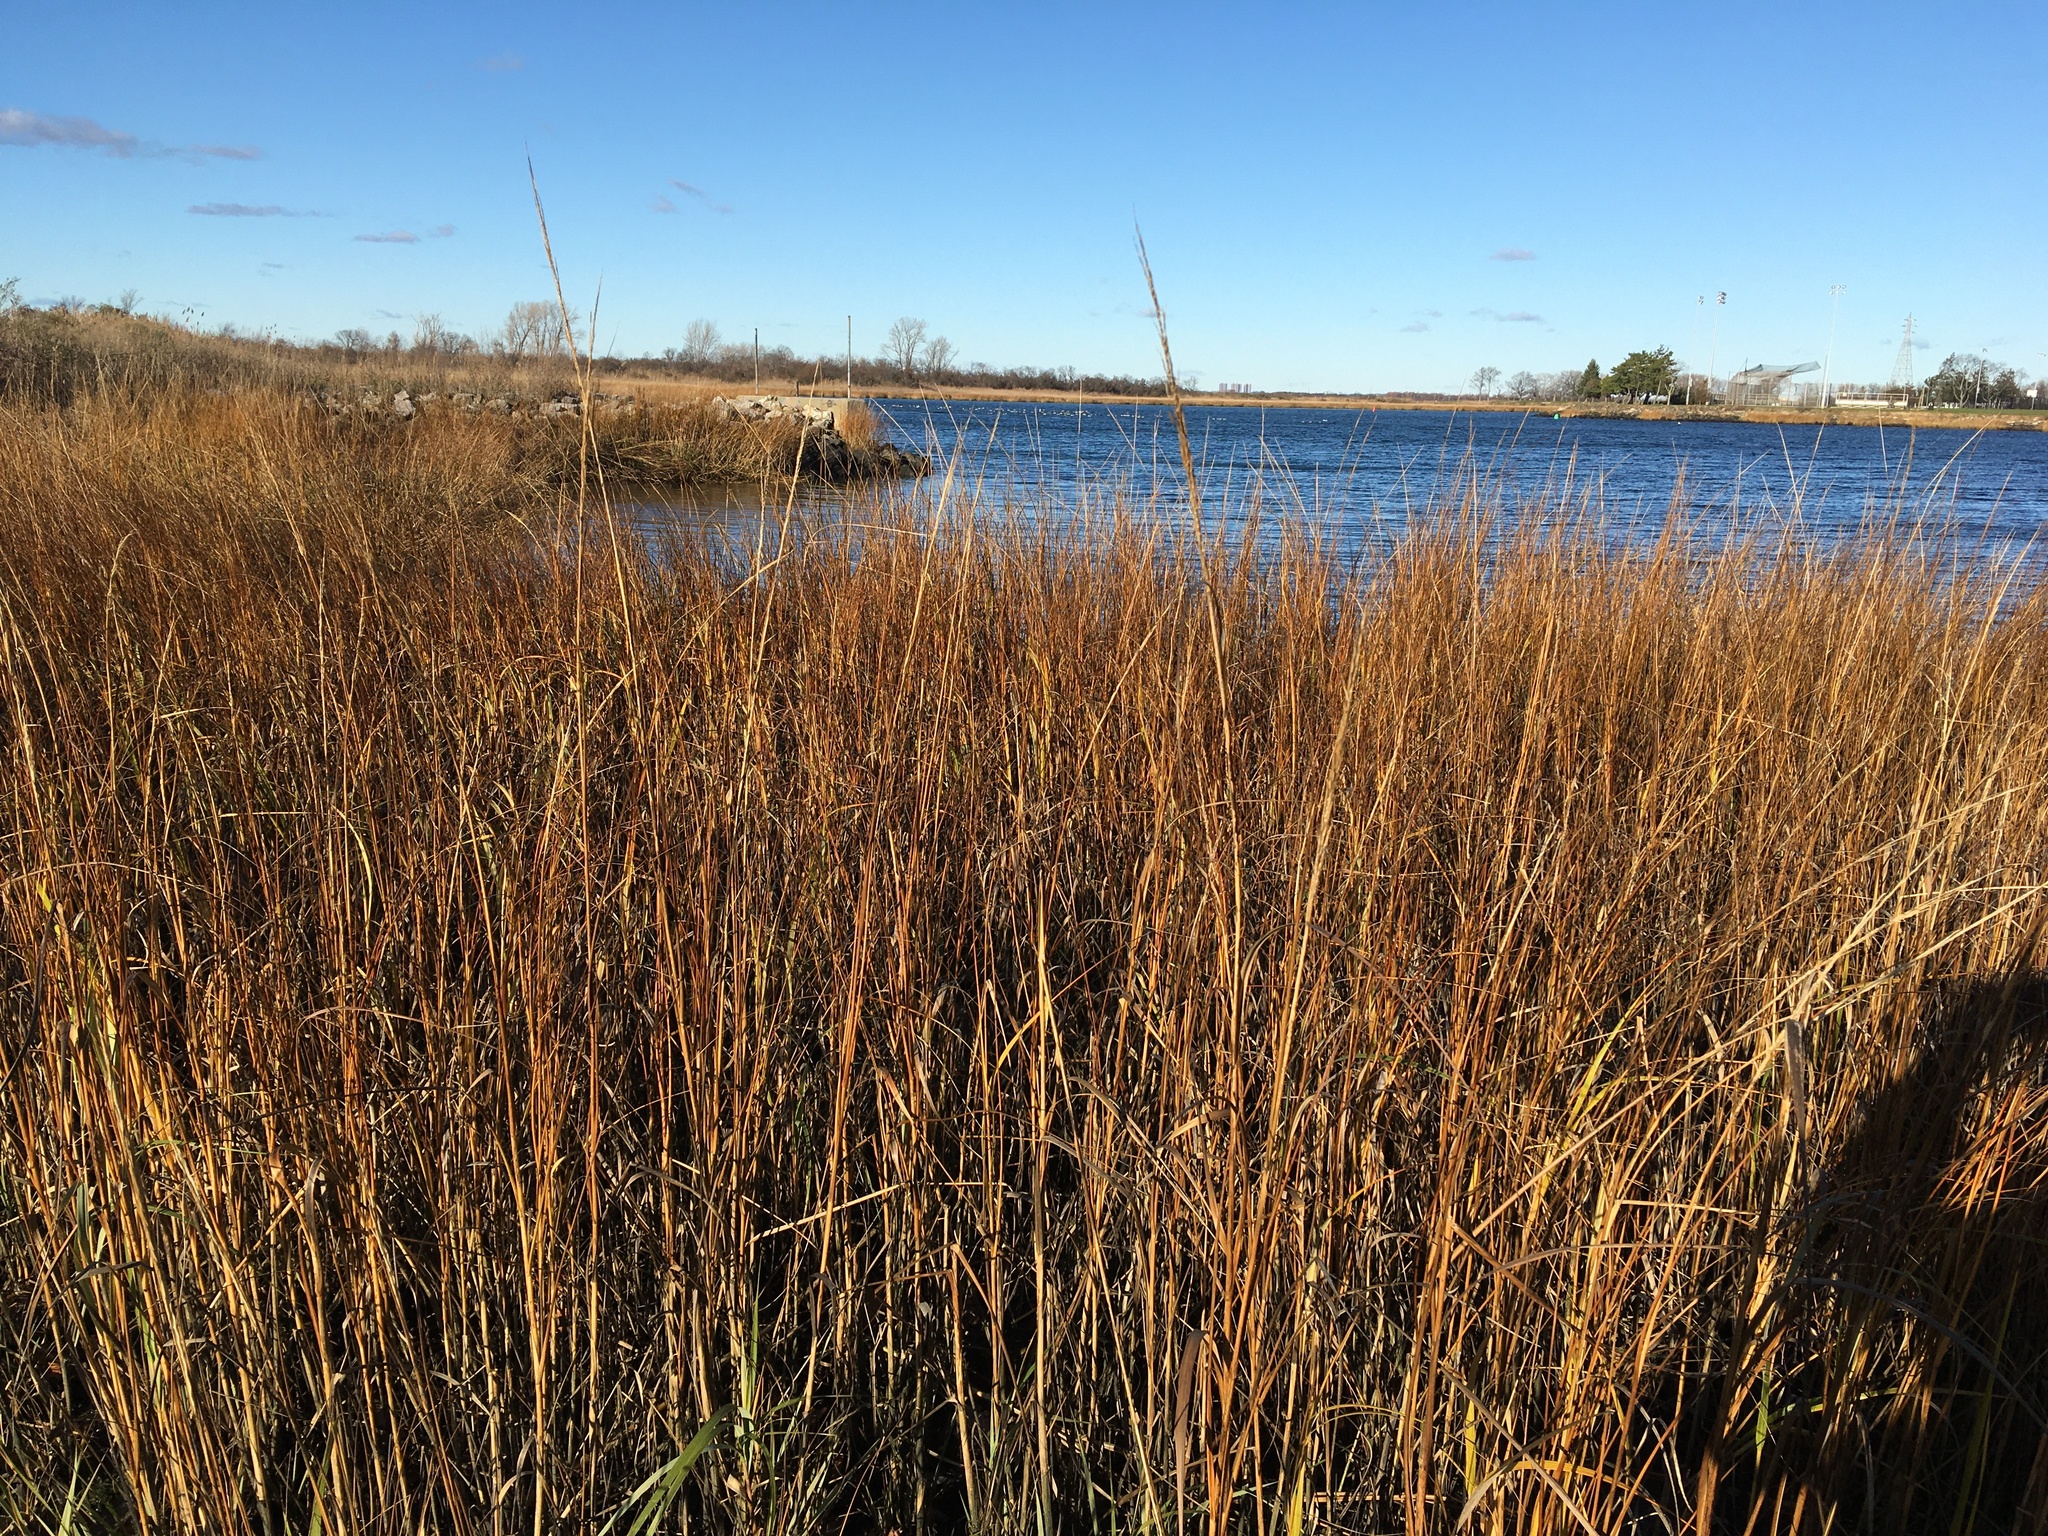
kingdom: Plantae
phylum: Tracheophyta
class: Liliopsida
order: Poales
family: Poaceae
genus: Sporobolus
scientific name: Sporobolus alterniflorus
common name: Atlantic cordgrass
